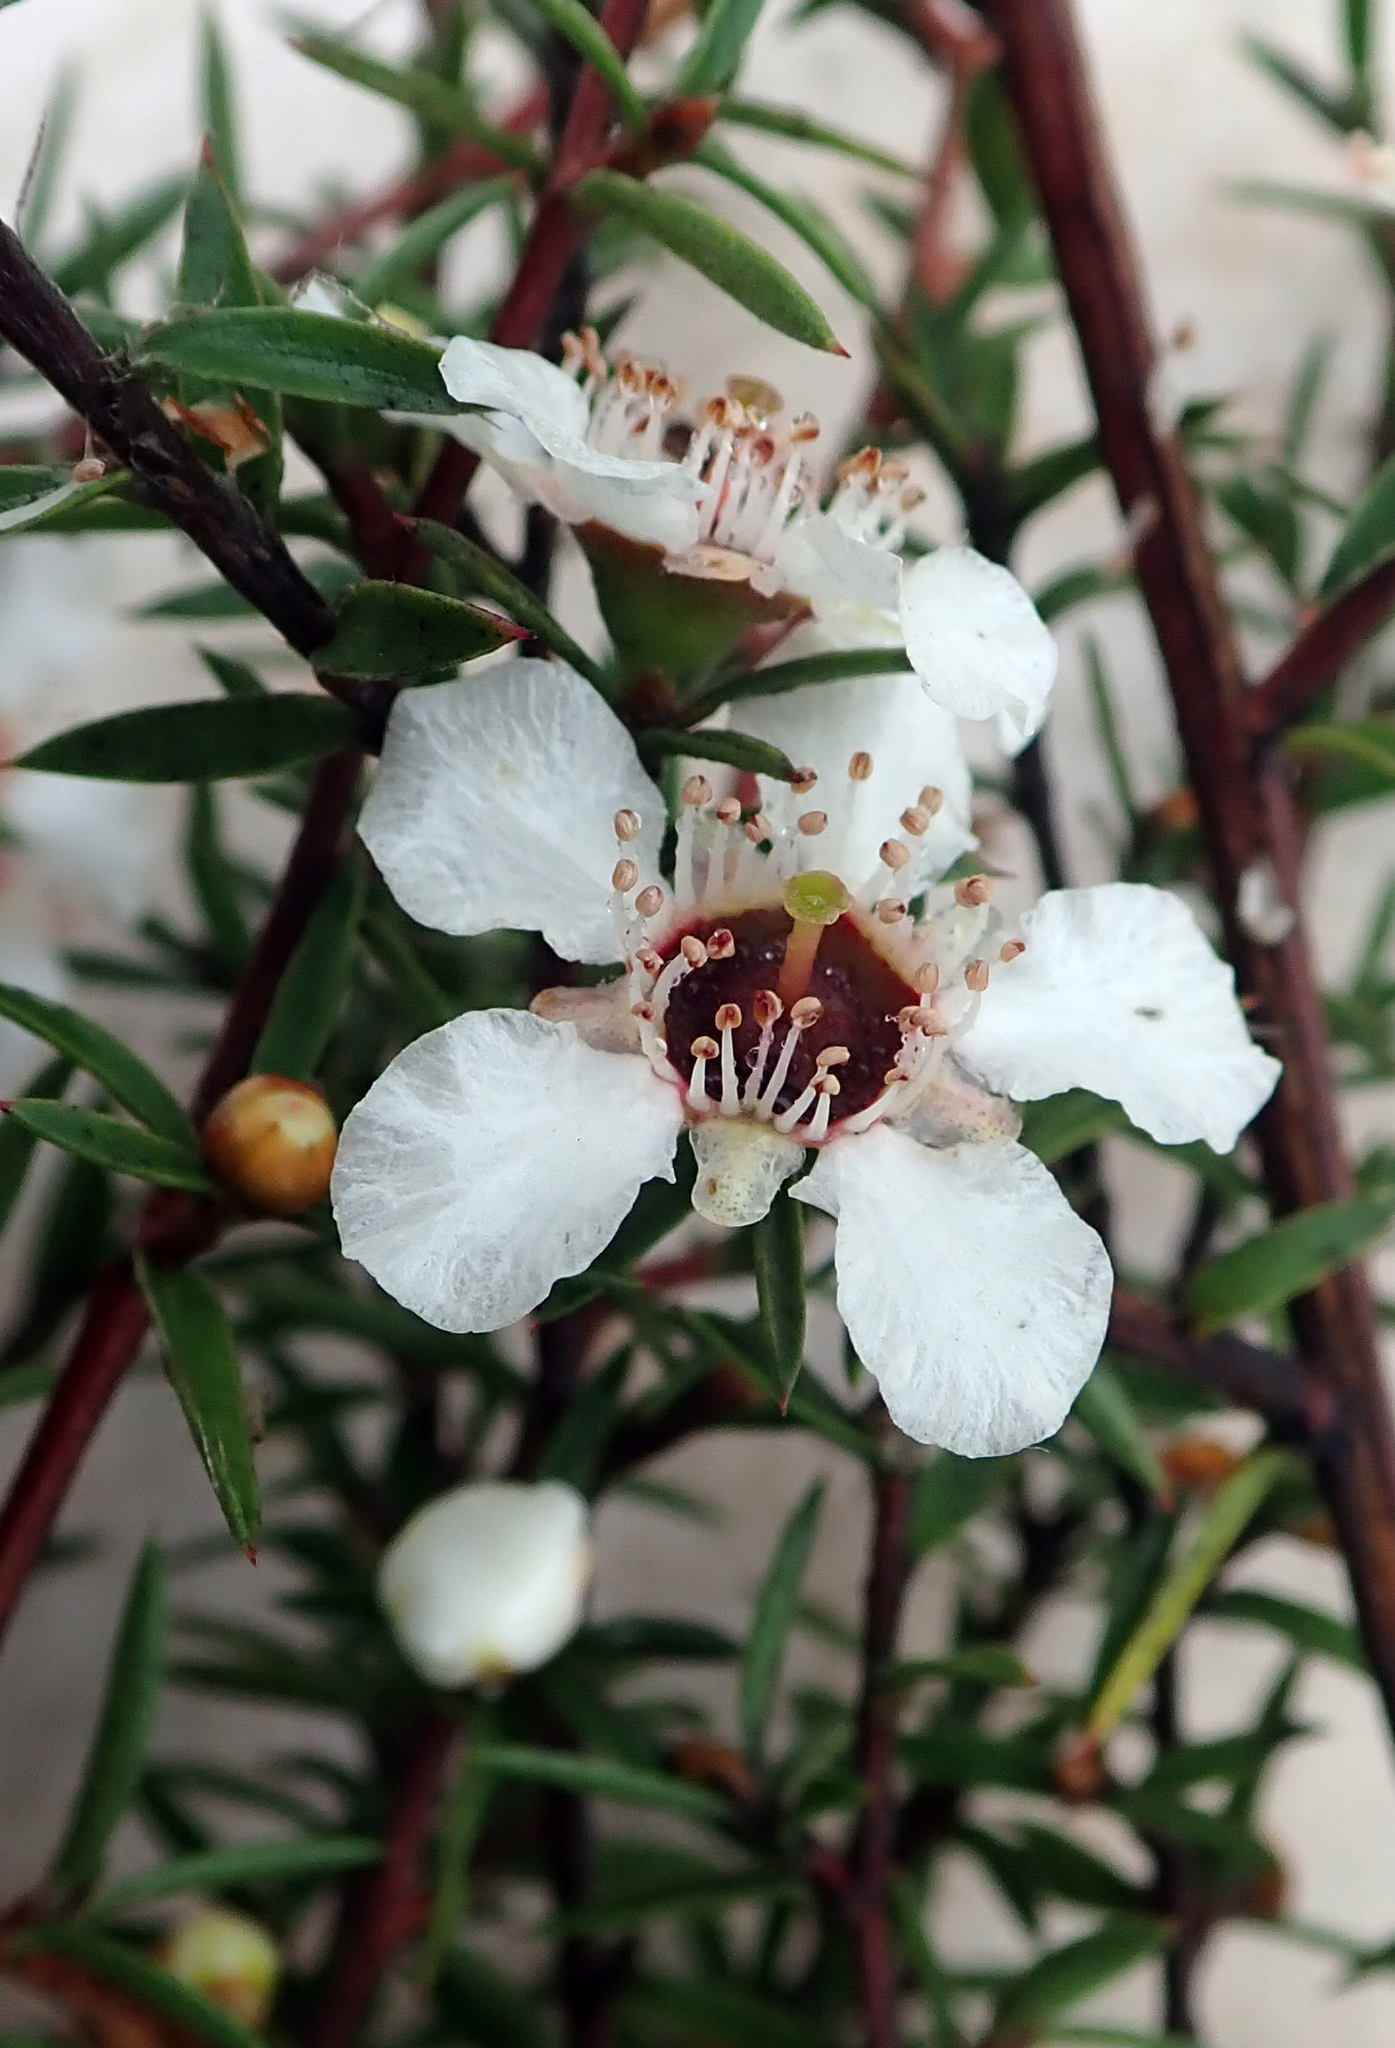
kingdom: Plantae
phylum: Tracheophyta
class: Magnoliopsida
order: Myrtales
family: Myrtaceae
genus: Leptospermum
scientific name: Leptospermum scoparium
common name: Broom tea-tree
